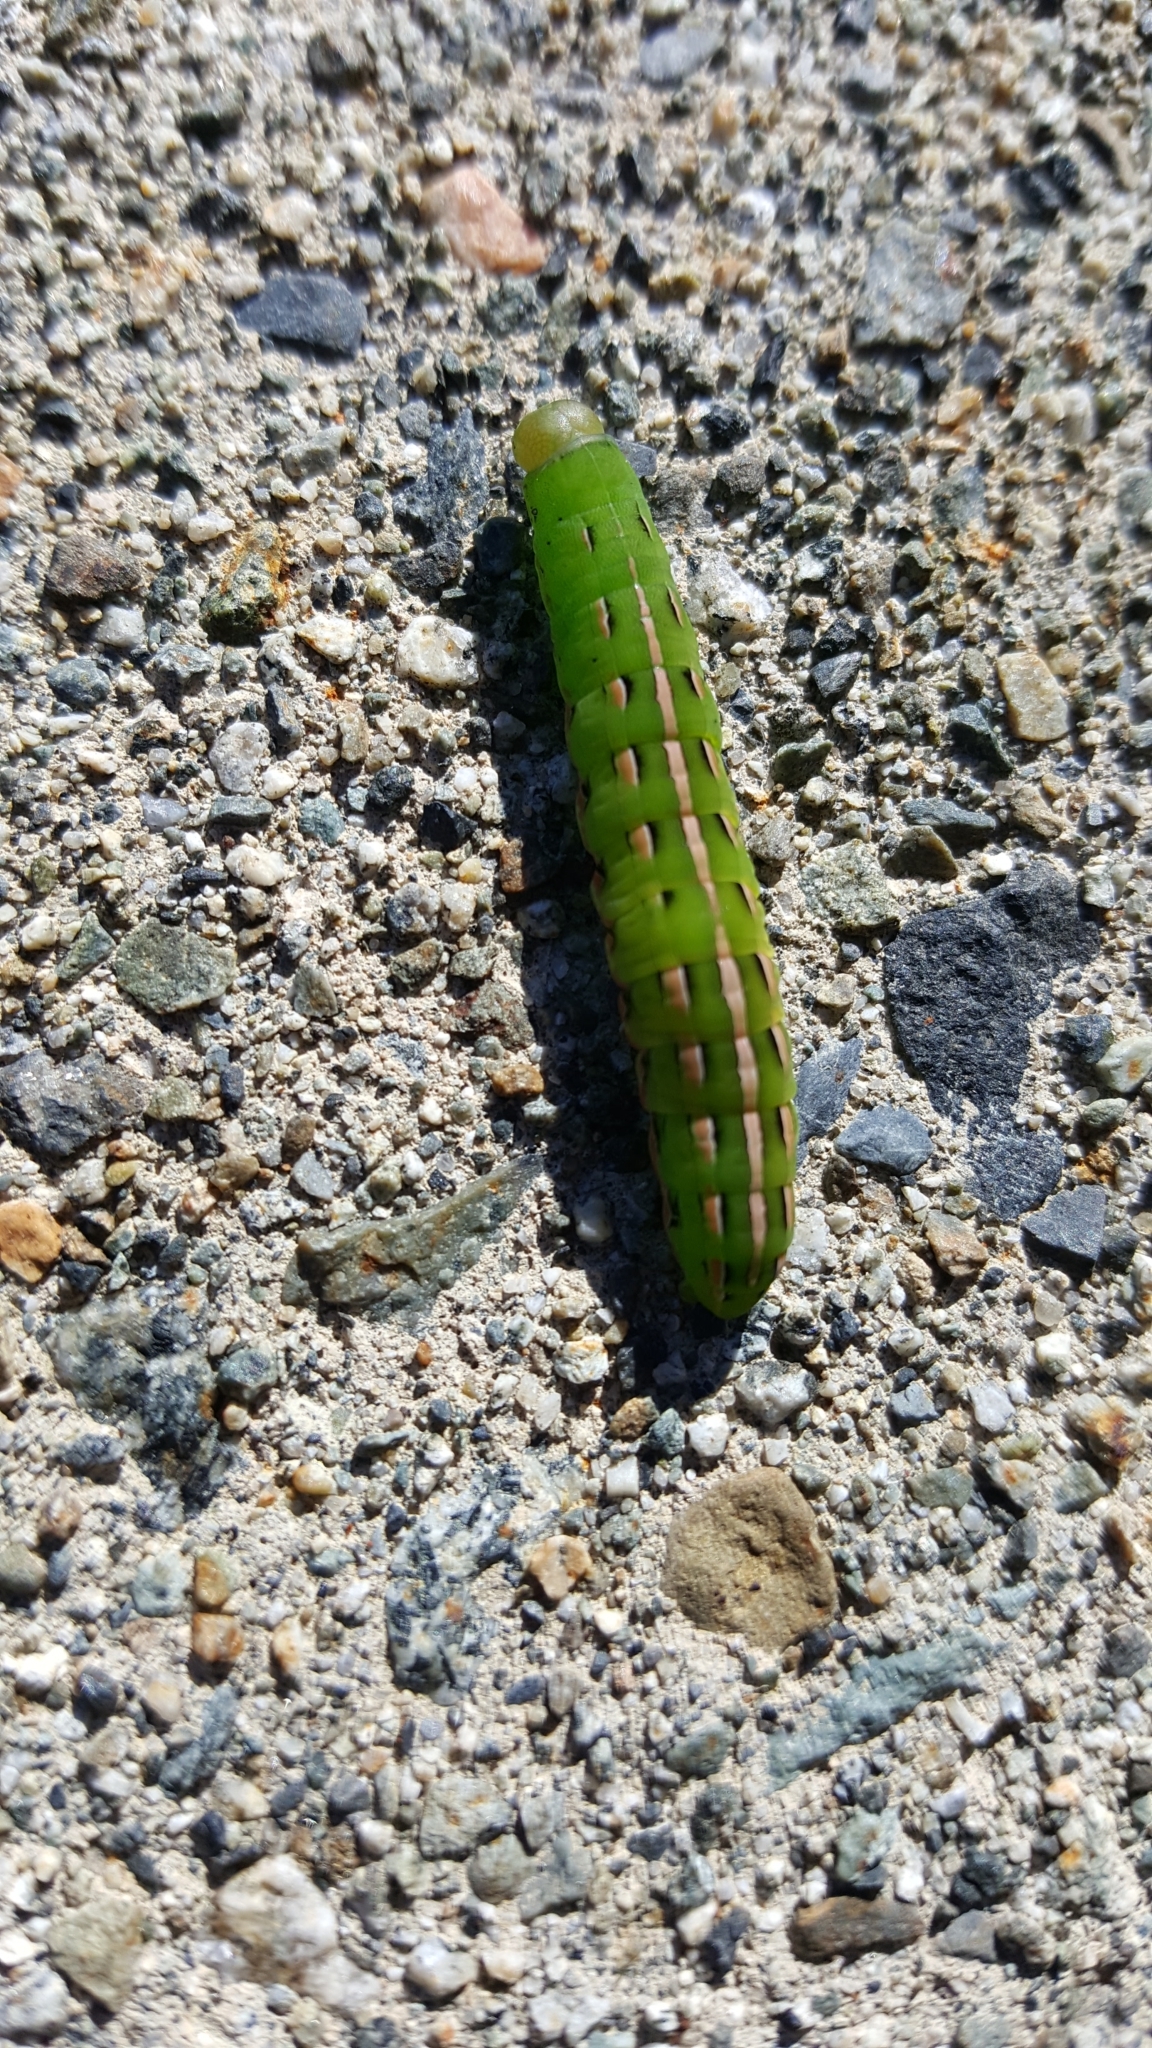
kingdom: Animalia
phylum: Arthropoda
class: Insecta
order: Lepidoptera
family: Noctuidae
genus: Dargida
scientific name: Dargida procinctus
